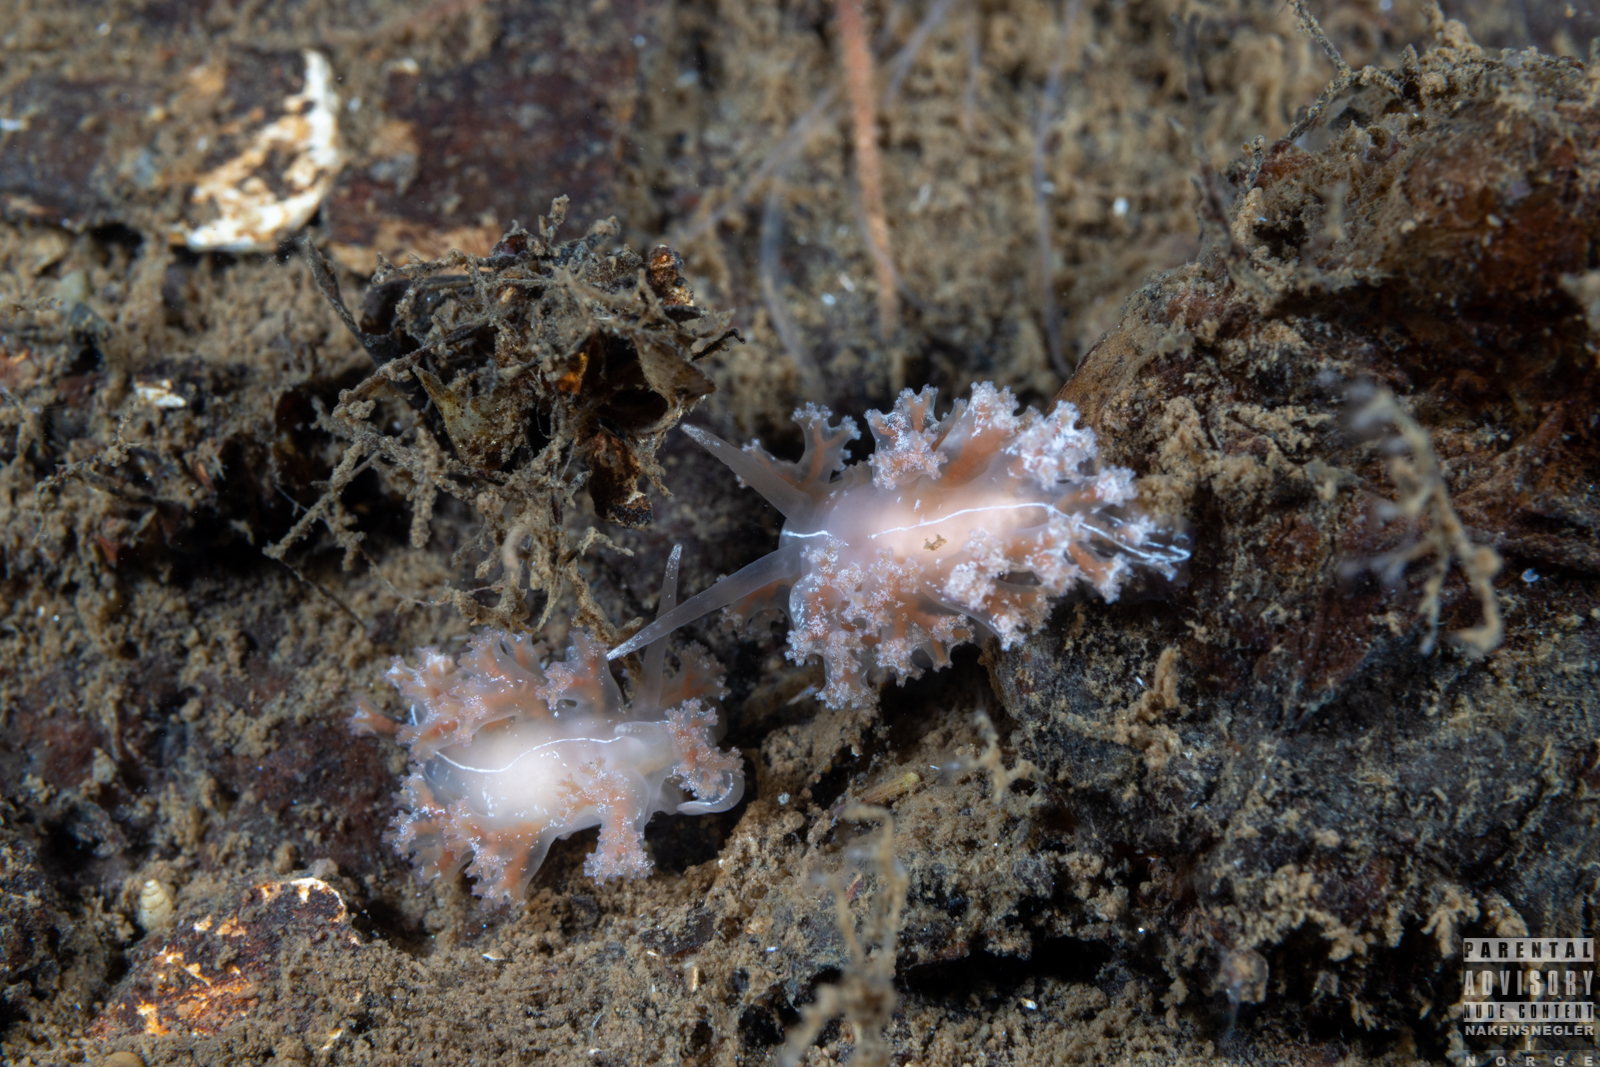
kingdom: Animalia
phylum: Mollusca
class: Gastropoda
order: Nudibranchia
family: Heroidae
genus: Hero
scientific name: Hero formosa
